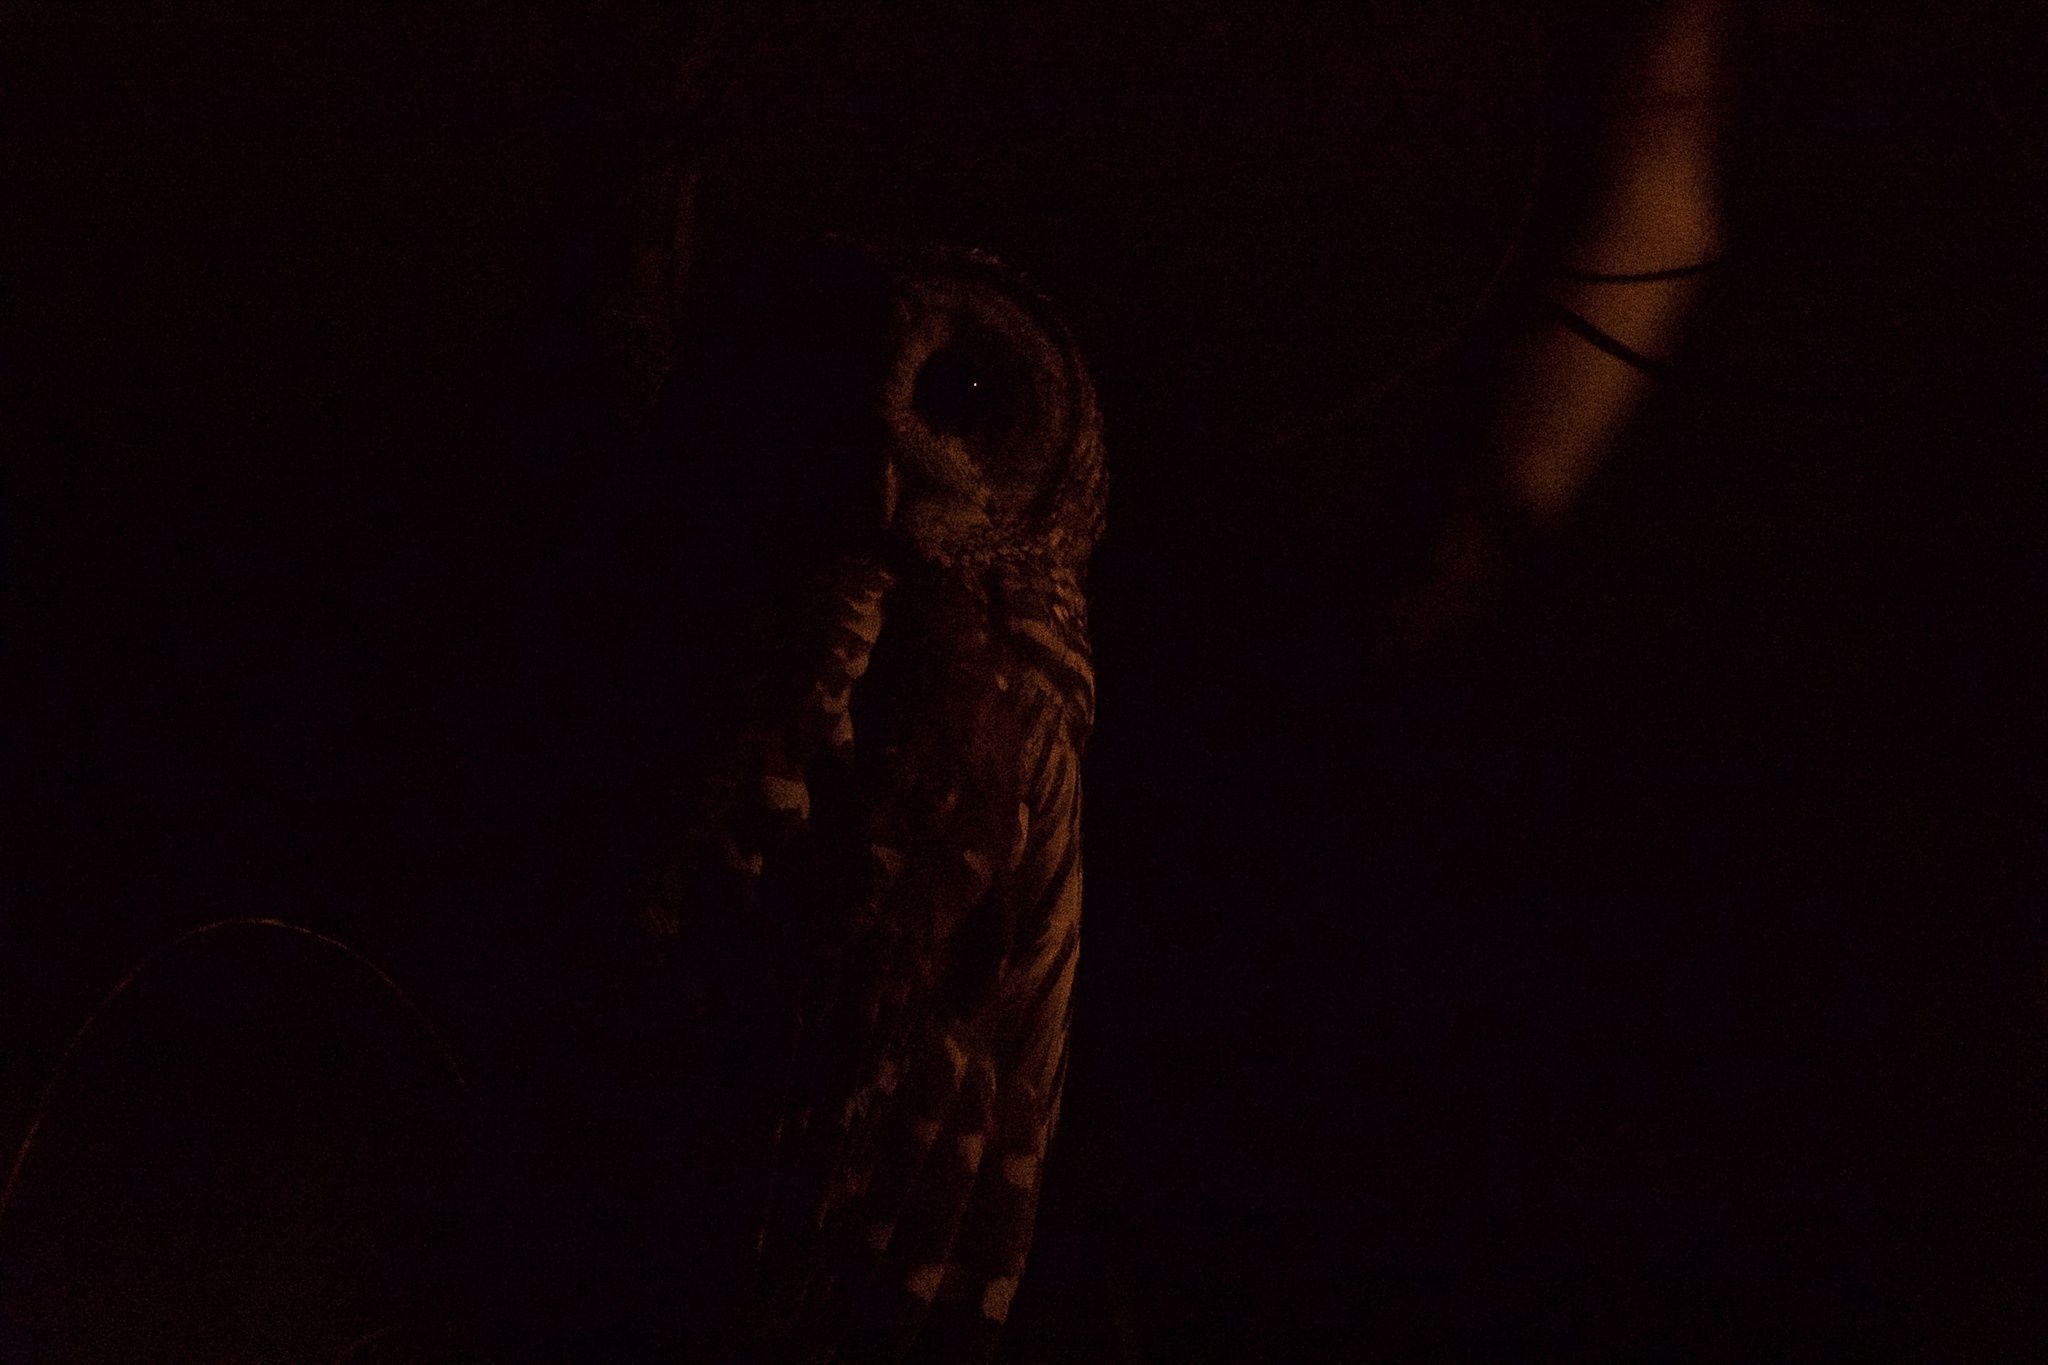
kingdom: Animalia
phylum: Chordata
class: Aves
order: Strigiformes
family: Strigidae
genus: Strix
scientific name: Strix varia
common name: Barred owl
